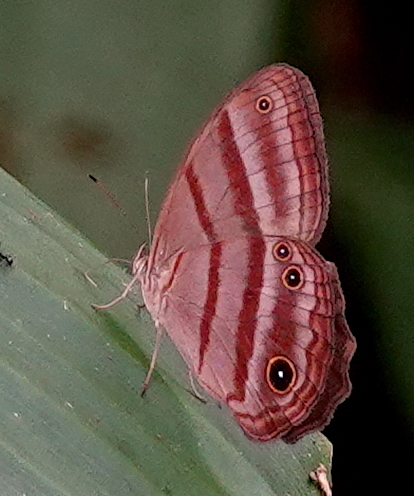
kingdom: Animalia
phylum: Arthropoda
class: Insecta
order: Lepidoptera
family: Nymphalidae
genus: Satyrotaygetis
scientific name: Satyrotaygetis
